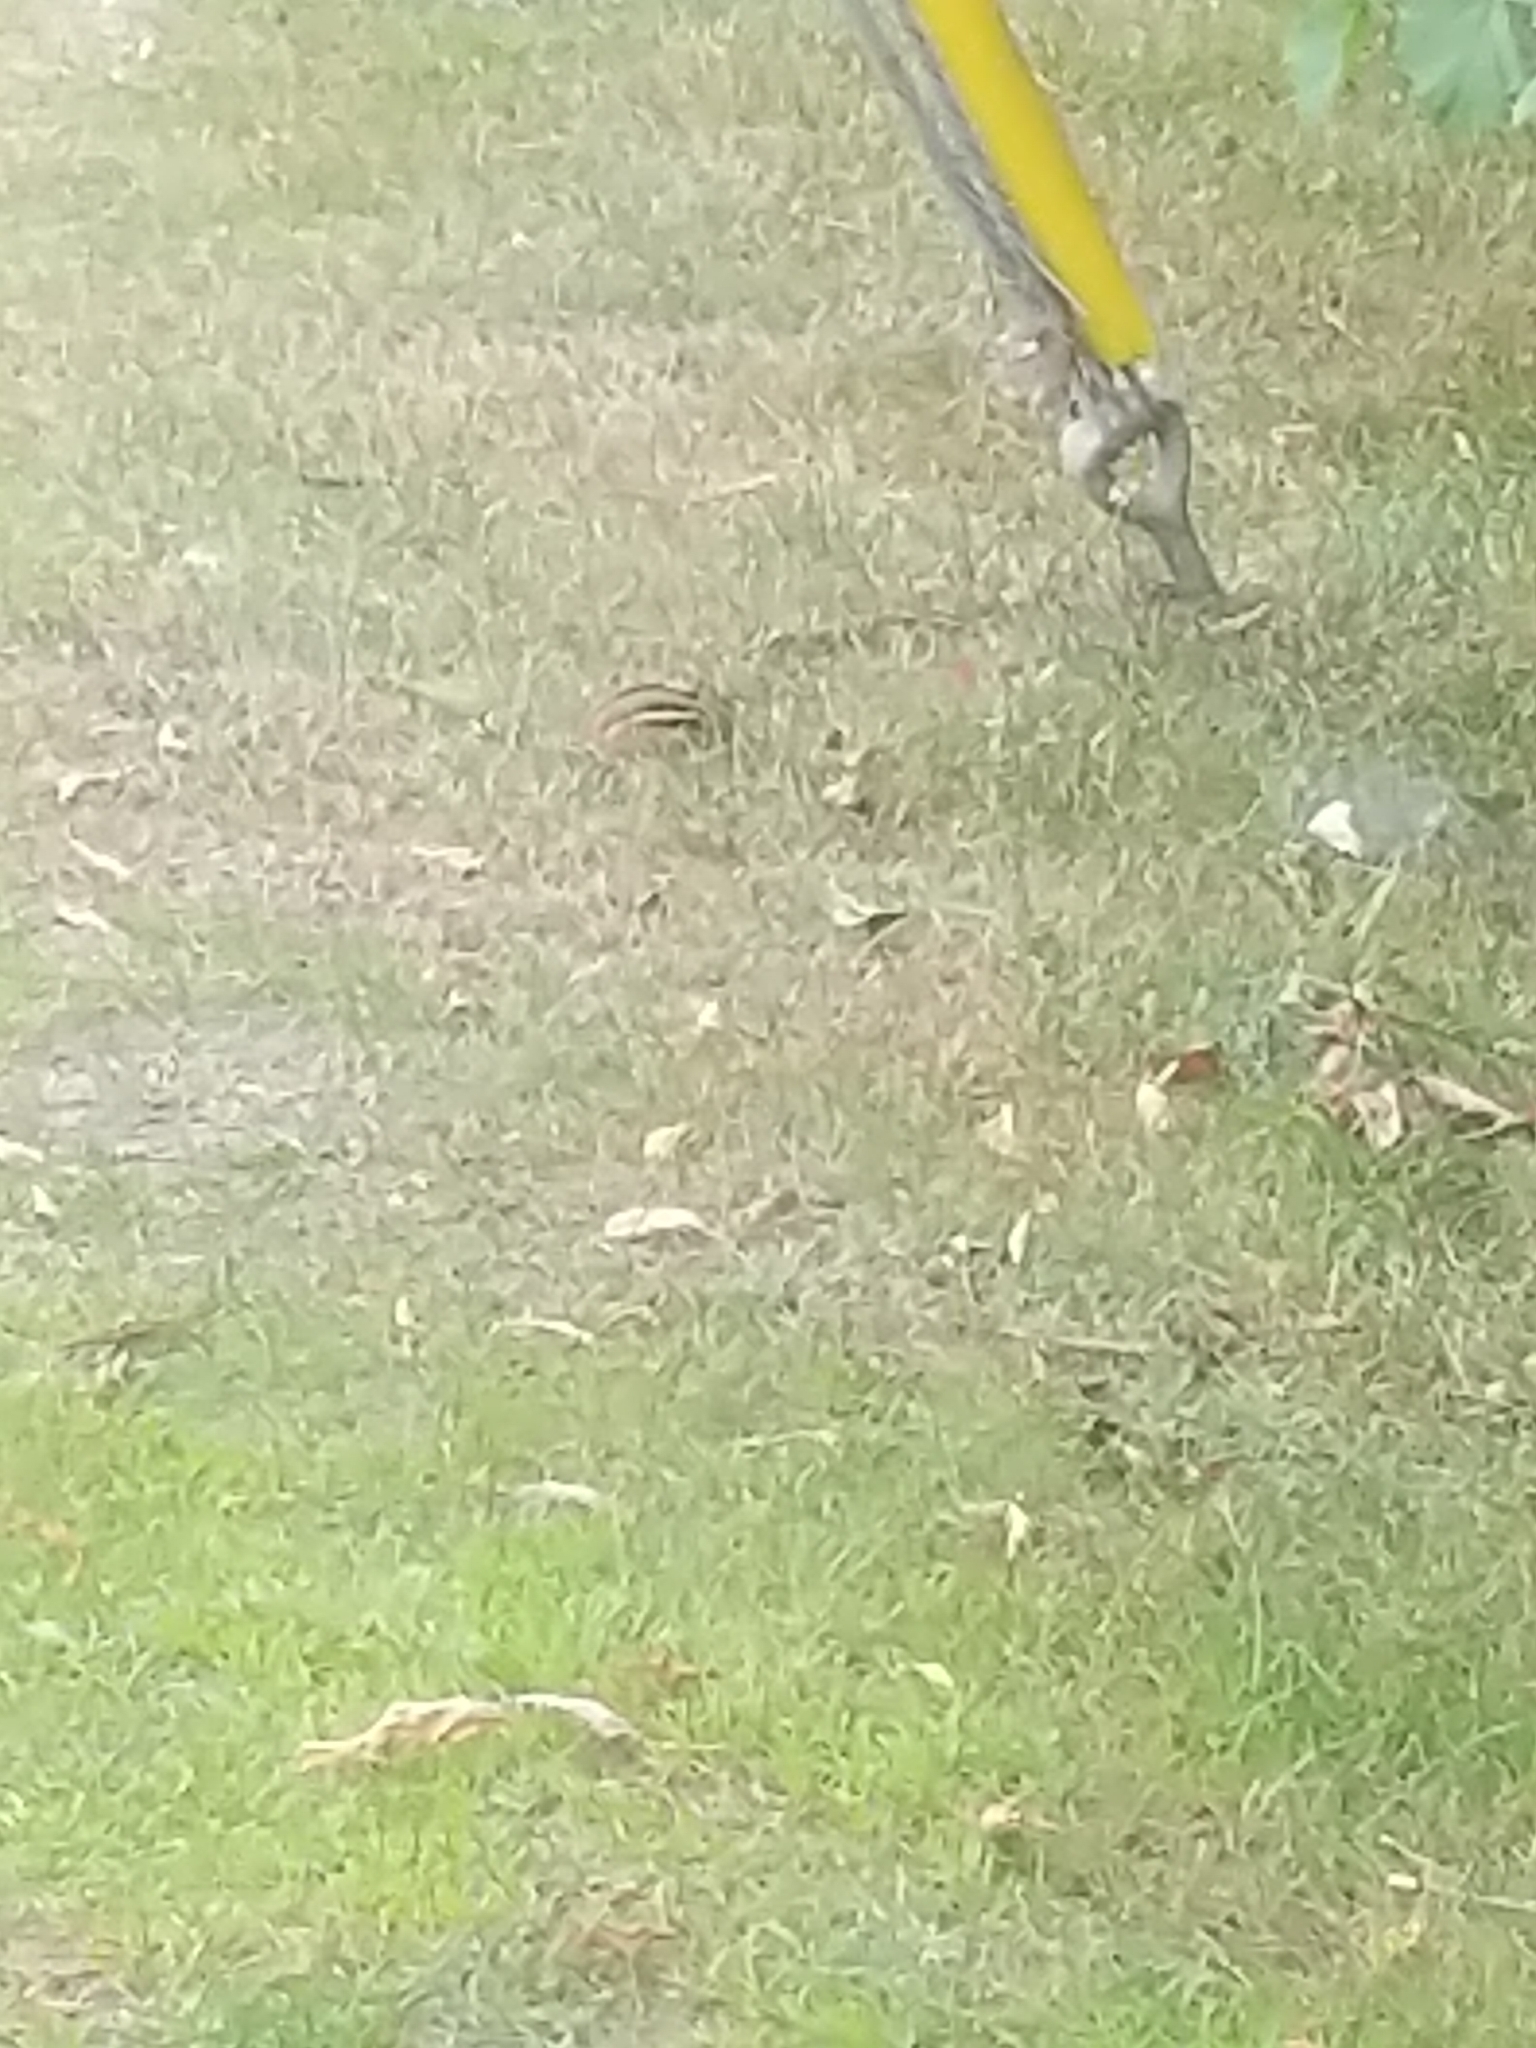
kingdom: Animalia
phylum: Chordata
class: Mammalia
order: Rodentia
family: Sciuridae
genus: Tamias
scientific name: Tamias striatus
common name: Eastern chipmunk
